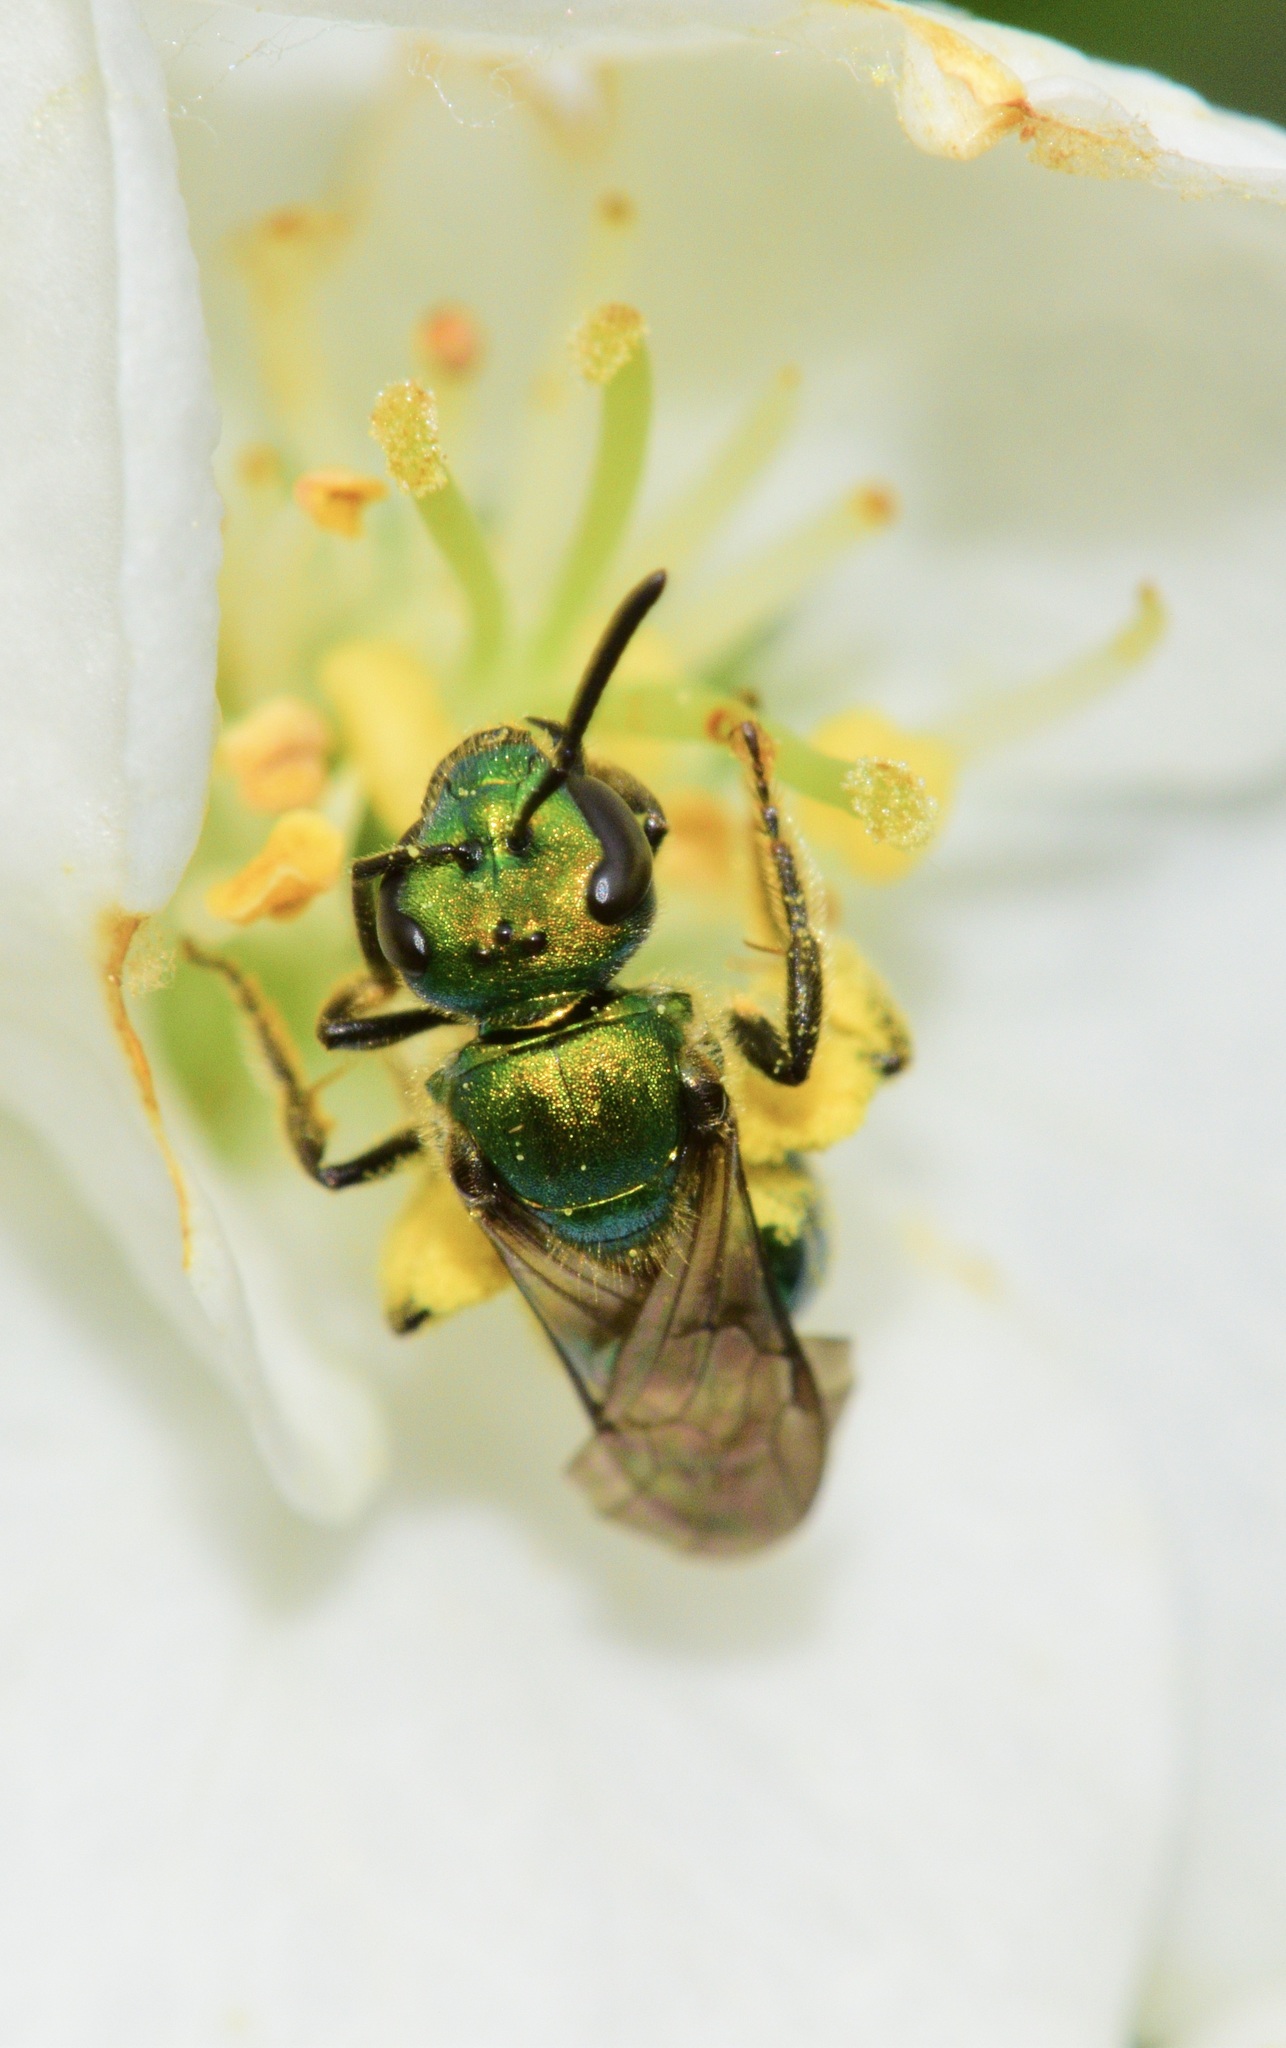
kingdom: Animalia
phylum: Arthropoda
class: Insecta
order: Hymenoptera
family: Halictidae
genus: Augochlora
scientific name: Augochlora pura
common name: Pure green sweat bee
